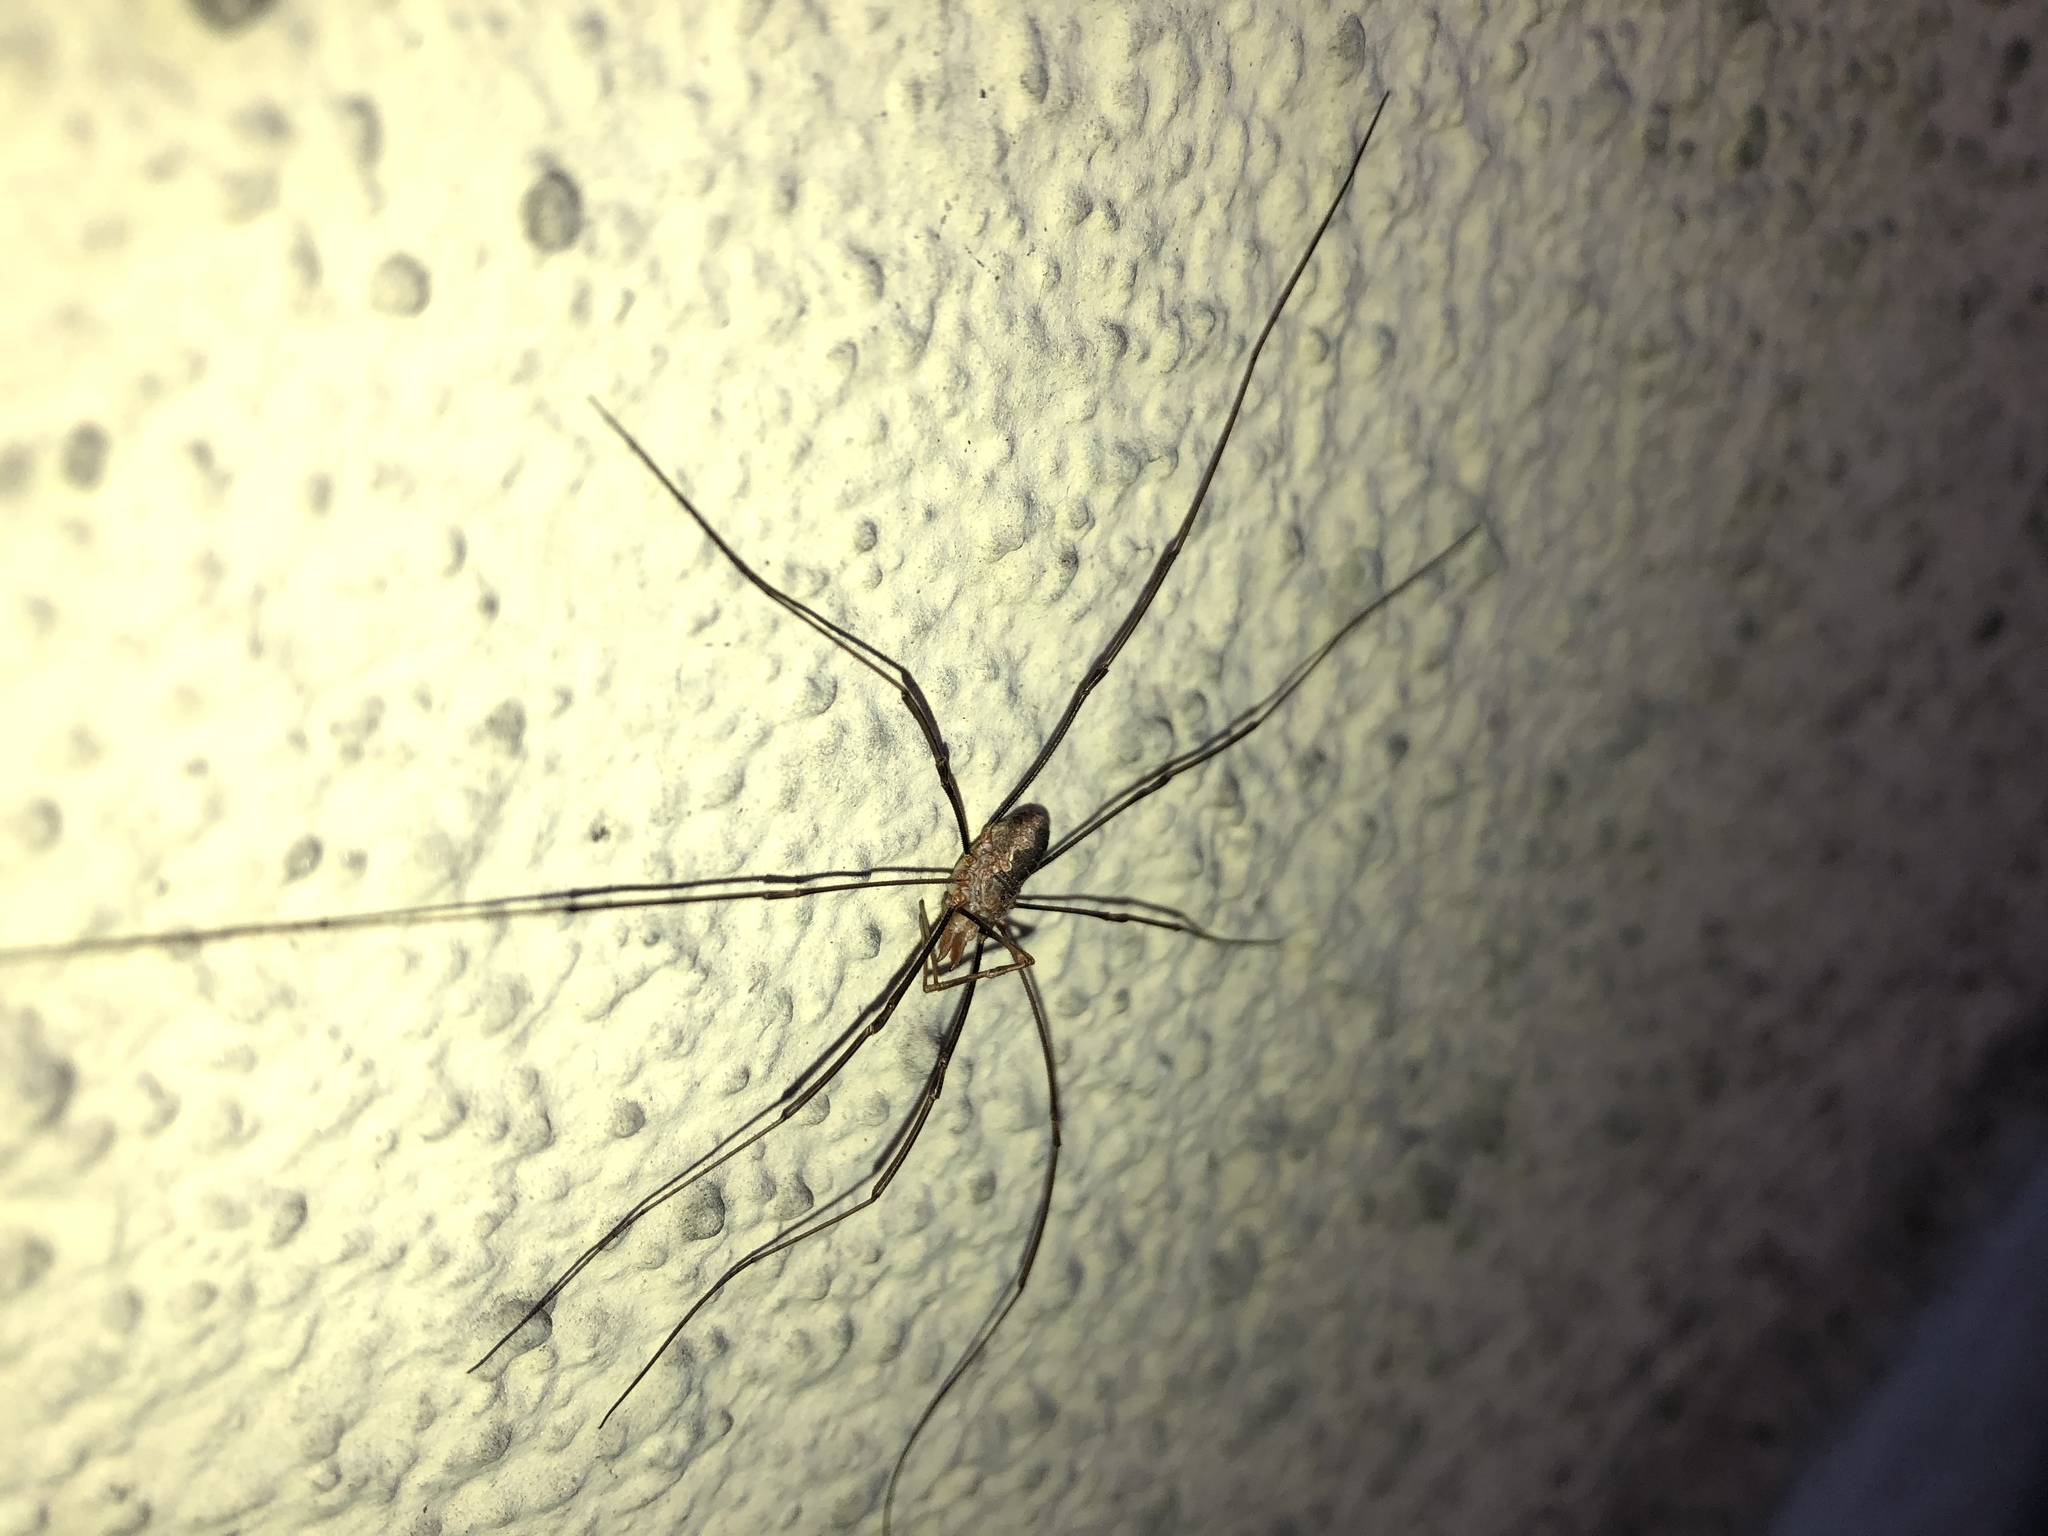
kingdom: Animalia
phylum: Arthropoda
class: Arachnida
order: Opiliones
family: Phalangiidae
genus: Phalangium
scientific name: Phalangium opilio
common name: Daddy longleg
